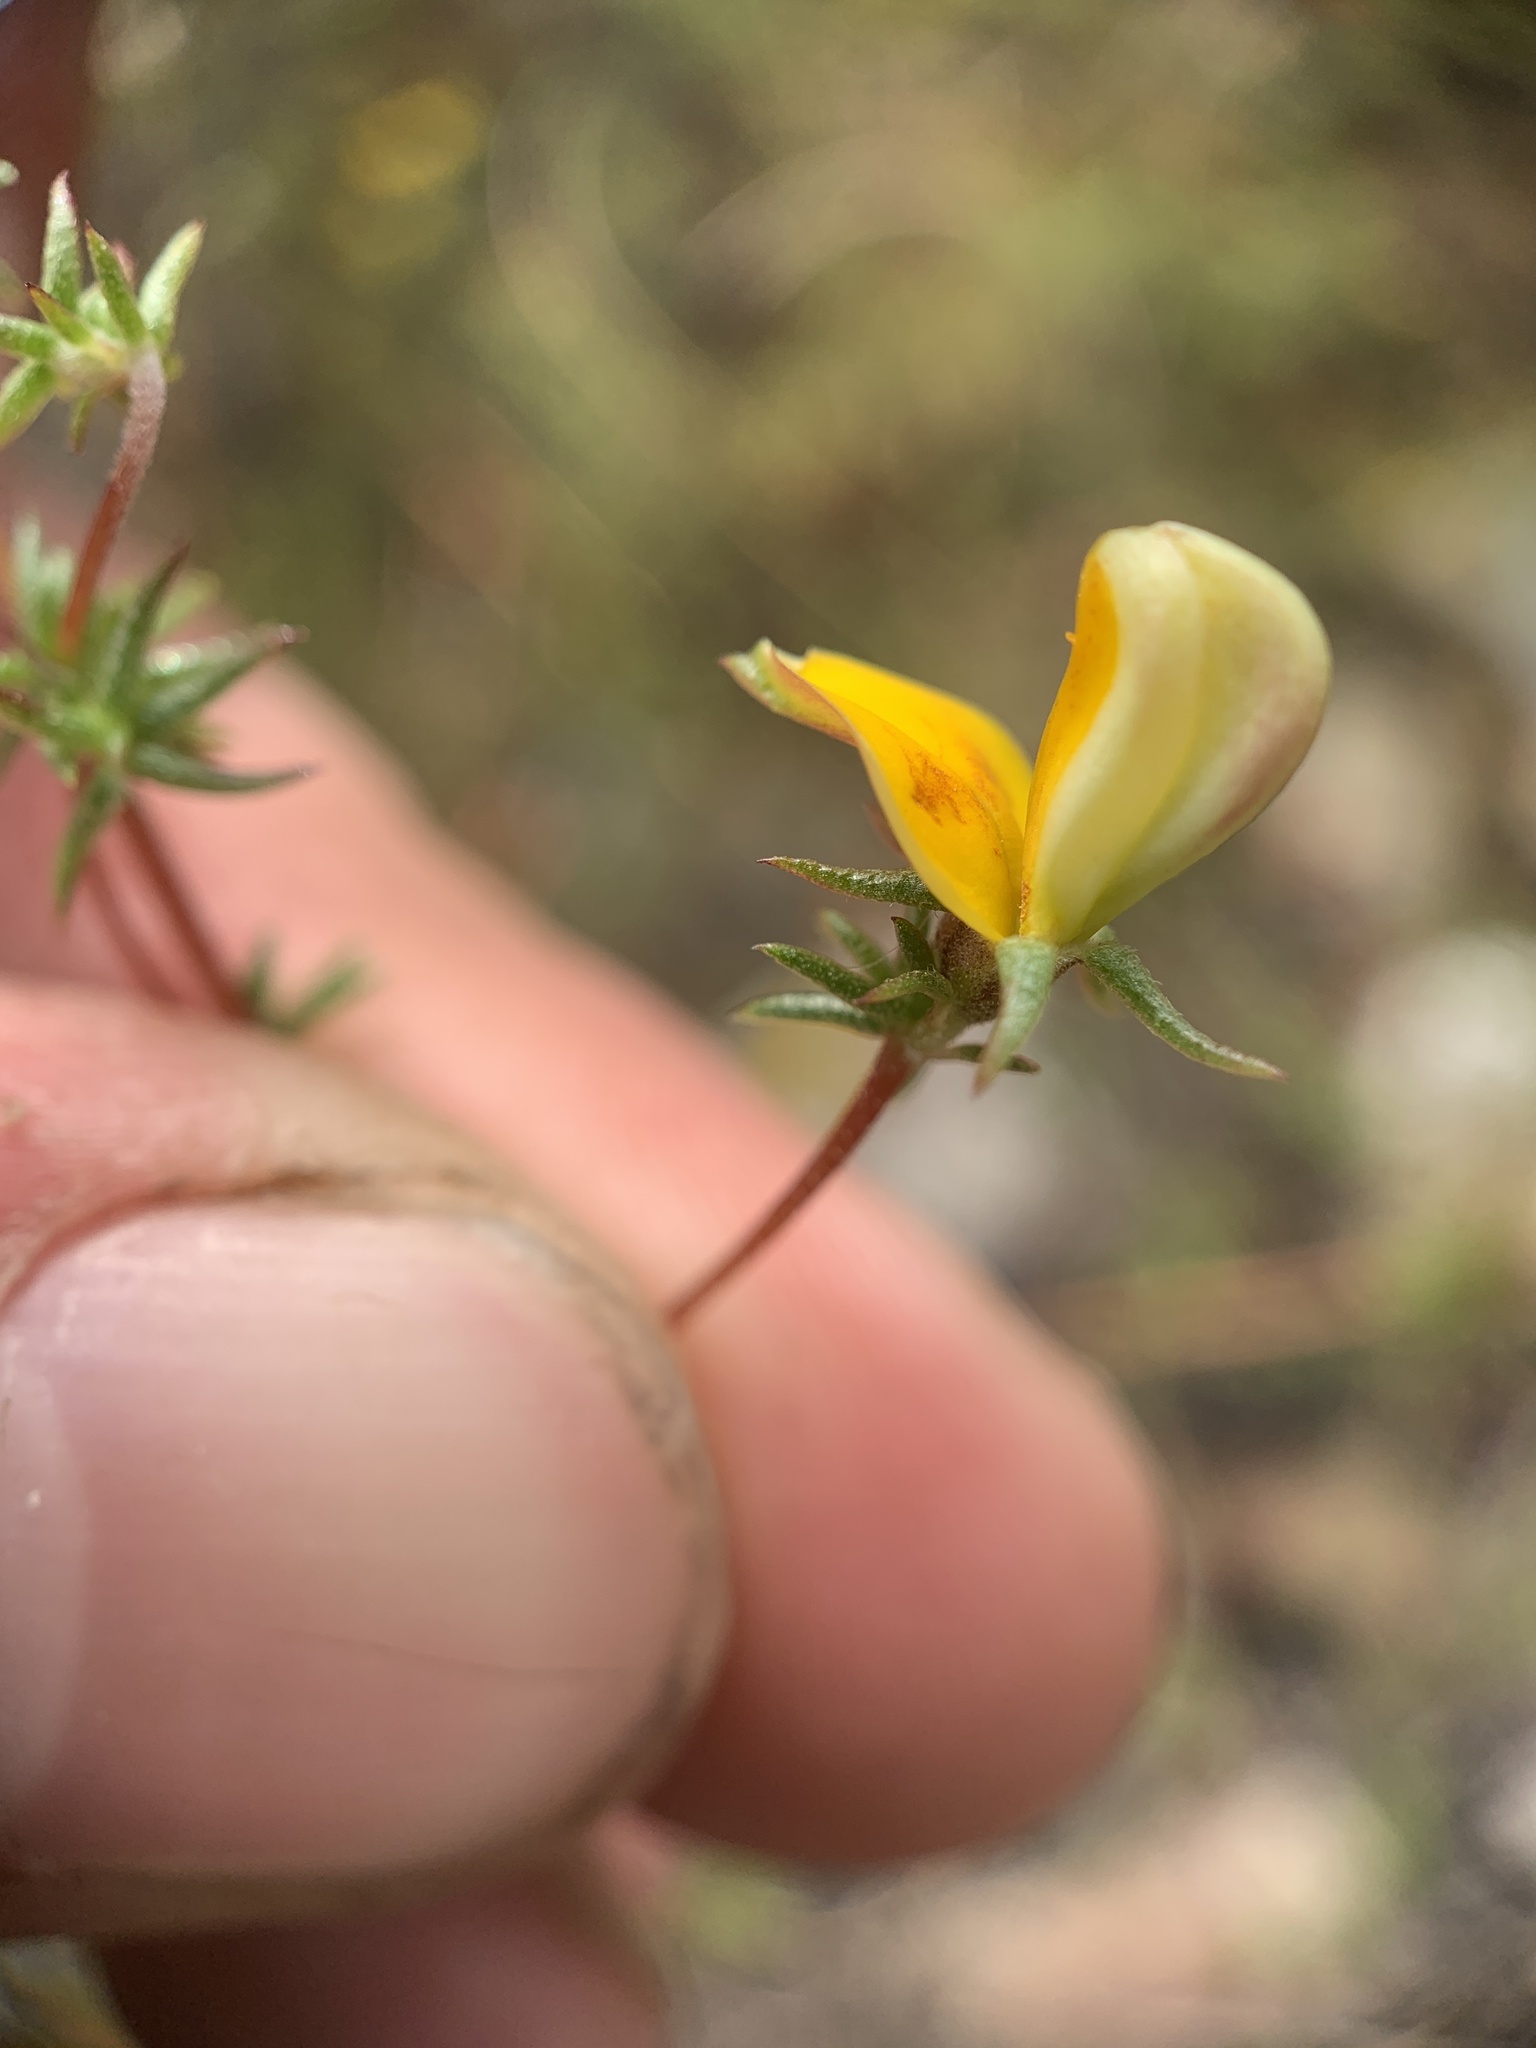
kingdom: Plantae
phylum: Tracheophyta
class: Magnoliopsida
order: Fabales
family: Fabaceae
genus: Aspalathus
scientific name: Aspalathus retroflexa
